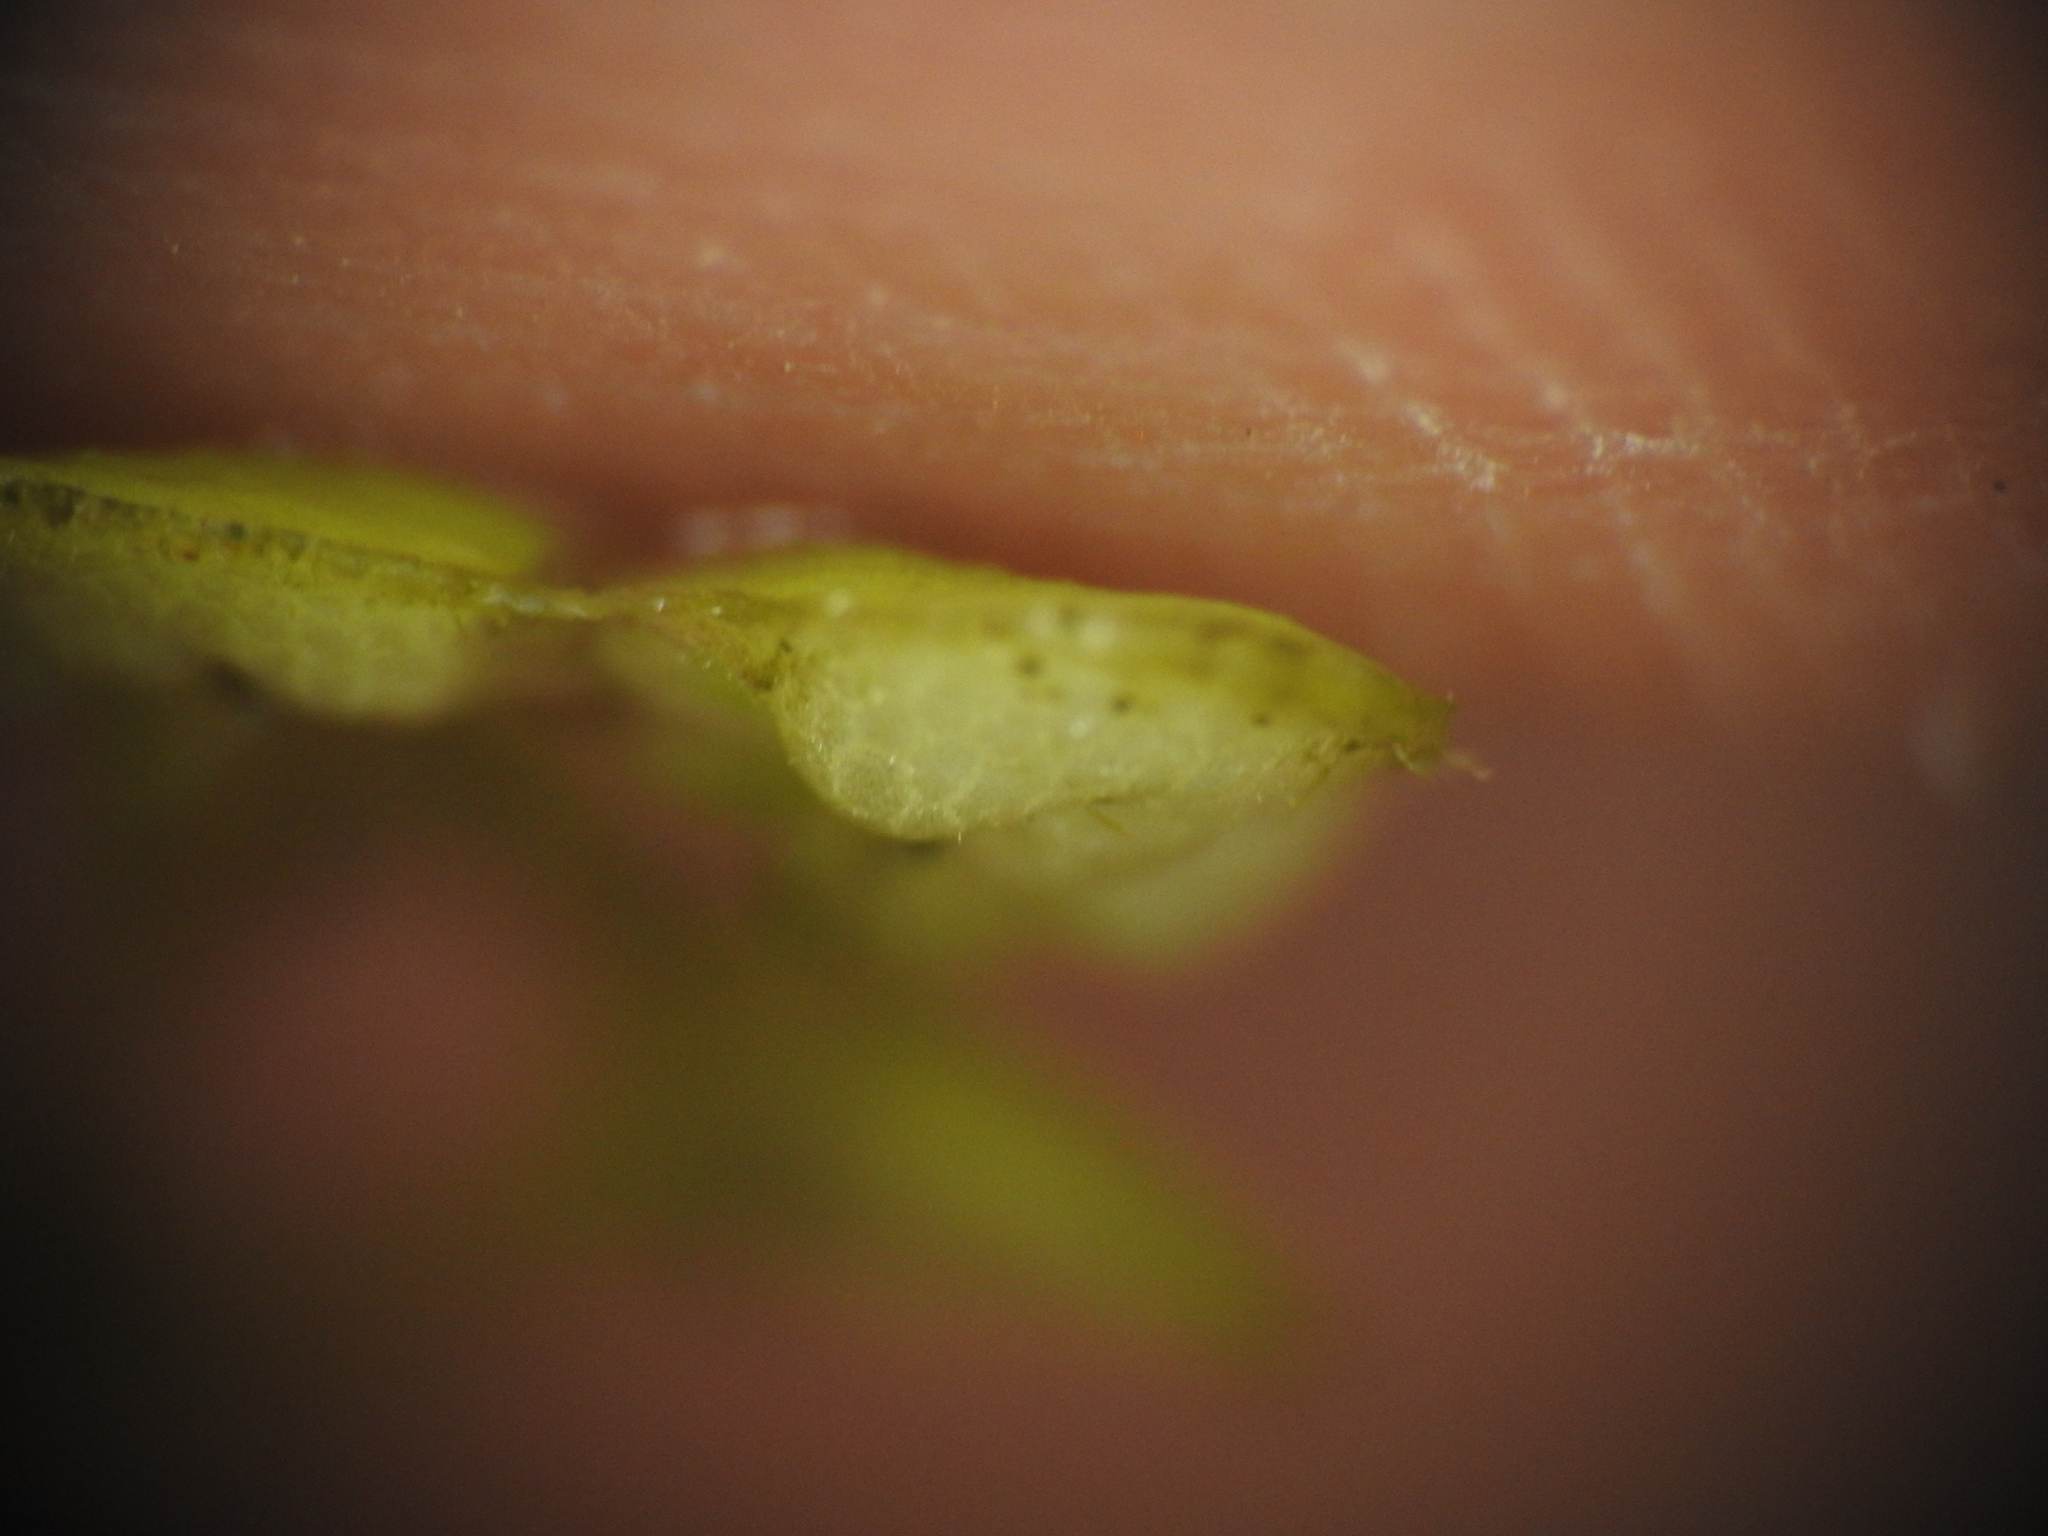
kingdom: Plantae
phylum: Tracheophyta
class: Liliopsida
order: Alismatales
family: Araceae
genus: Lemna
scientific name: Lemna gibba
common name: Fat duckweed
